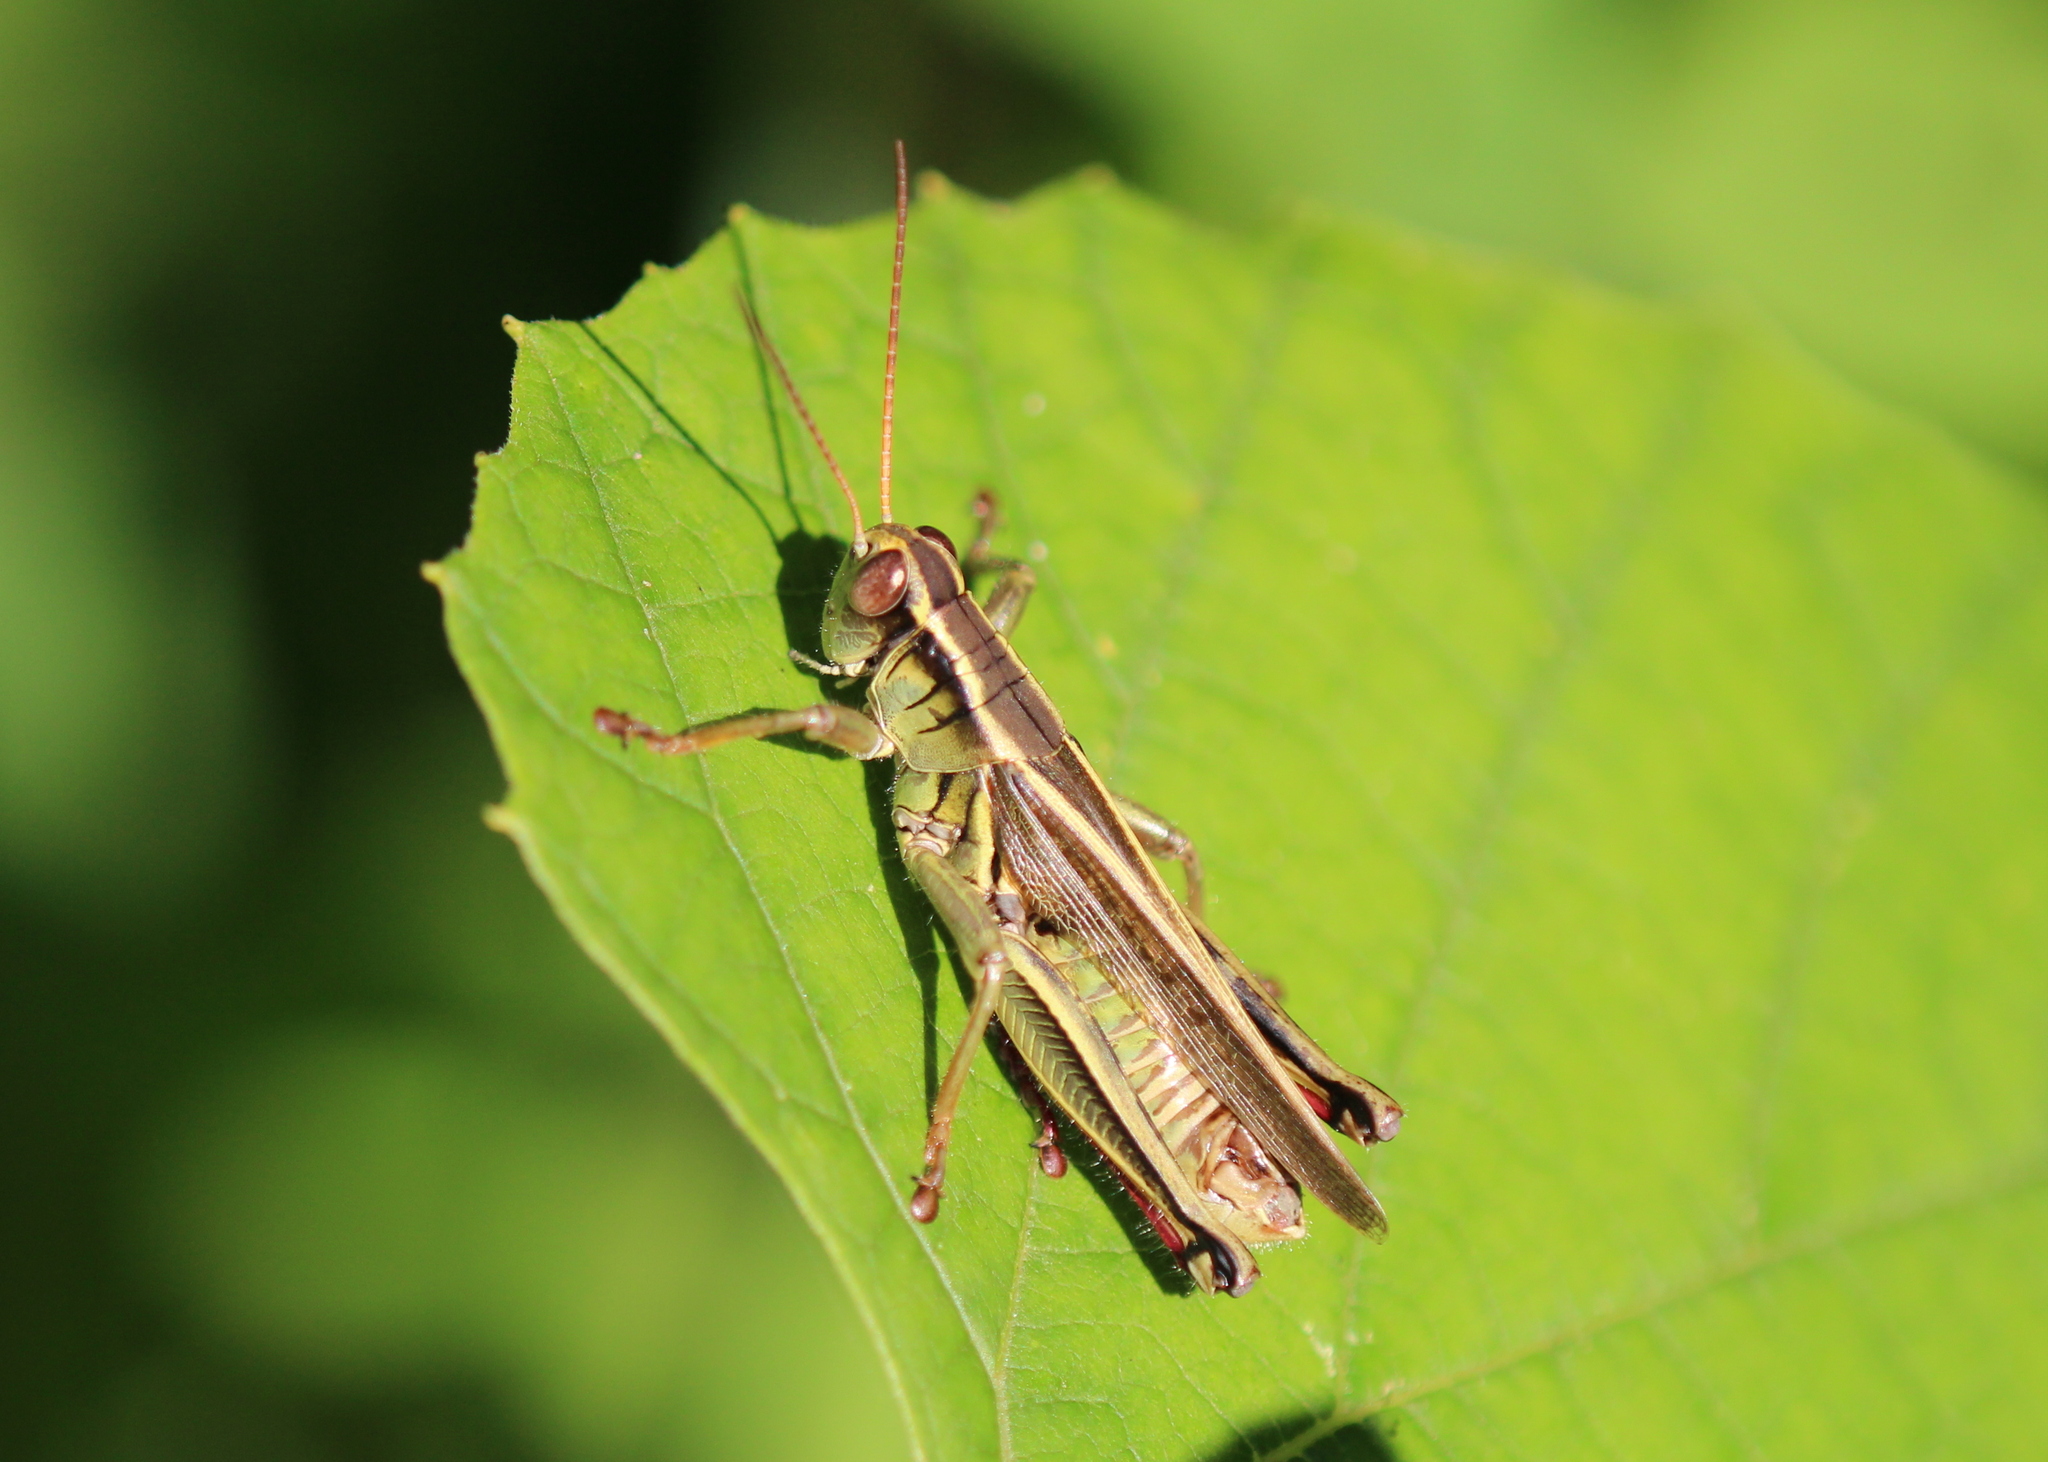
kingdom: Animalia
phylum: Arthropoda
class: Insecta
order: Orthoptera
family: Acrididae
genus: Melanoplus
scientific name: Melanoplus bivittatus
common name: Two-striped grasshopper
